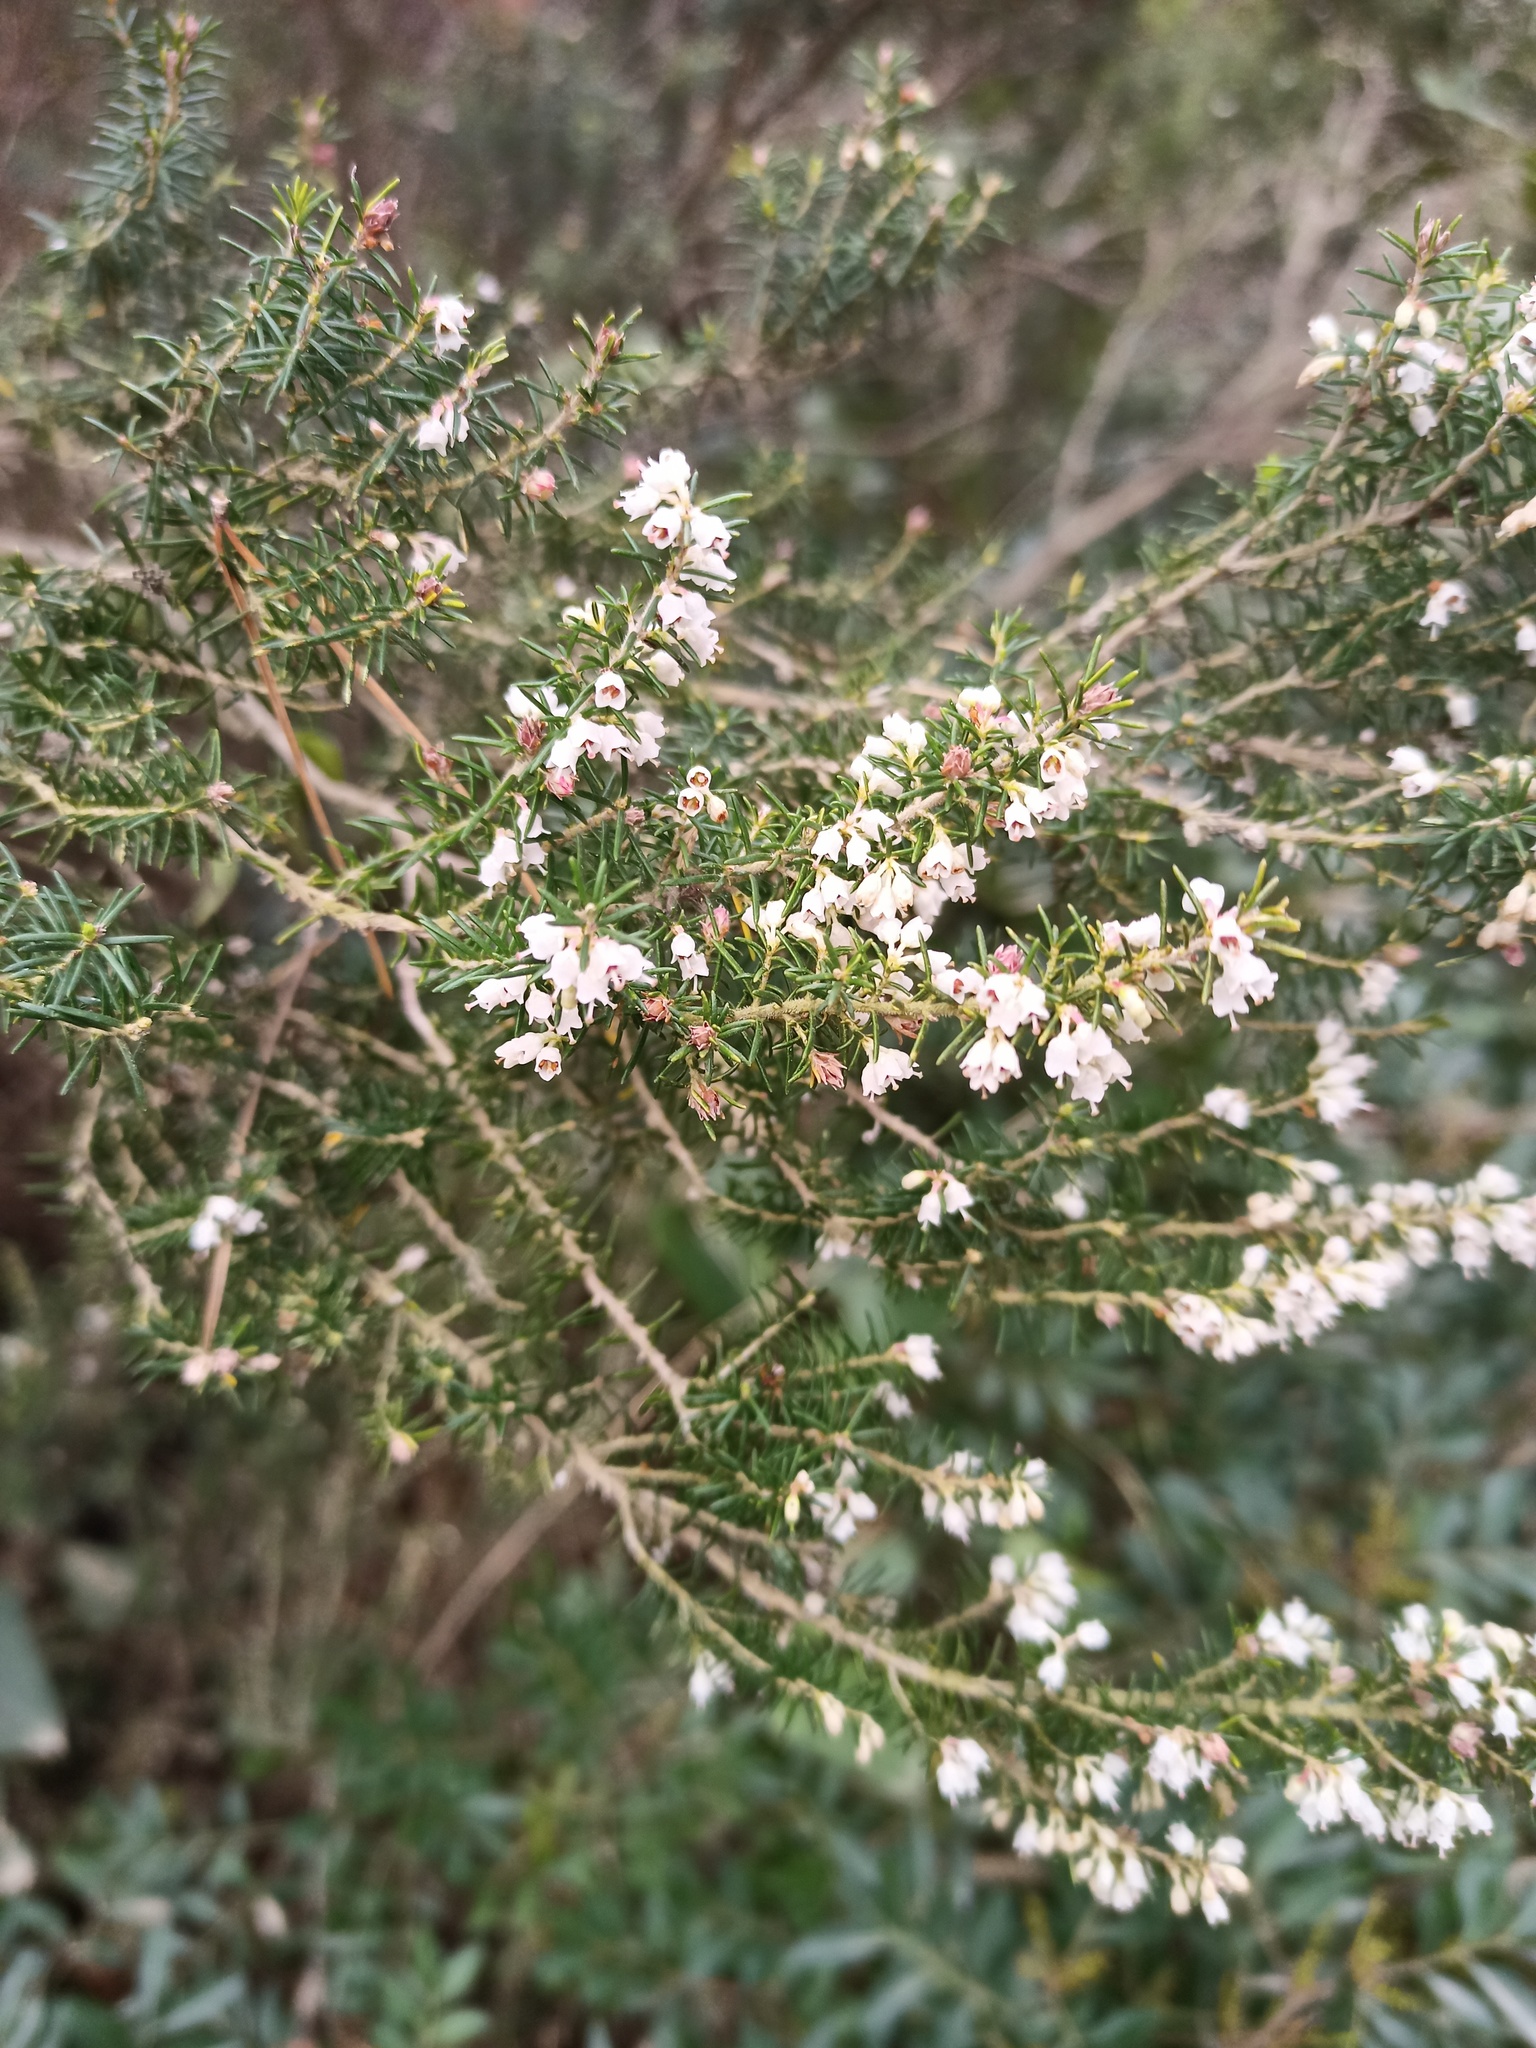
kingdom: Plantae
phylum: Tracheophyta
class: Magnoliopsida
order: Ericales
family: Ericaceae
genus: Erica
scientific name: Erica arborea
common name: Tree heath
